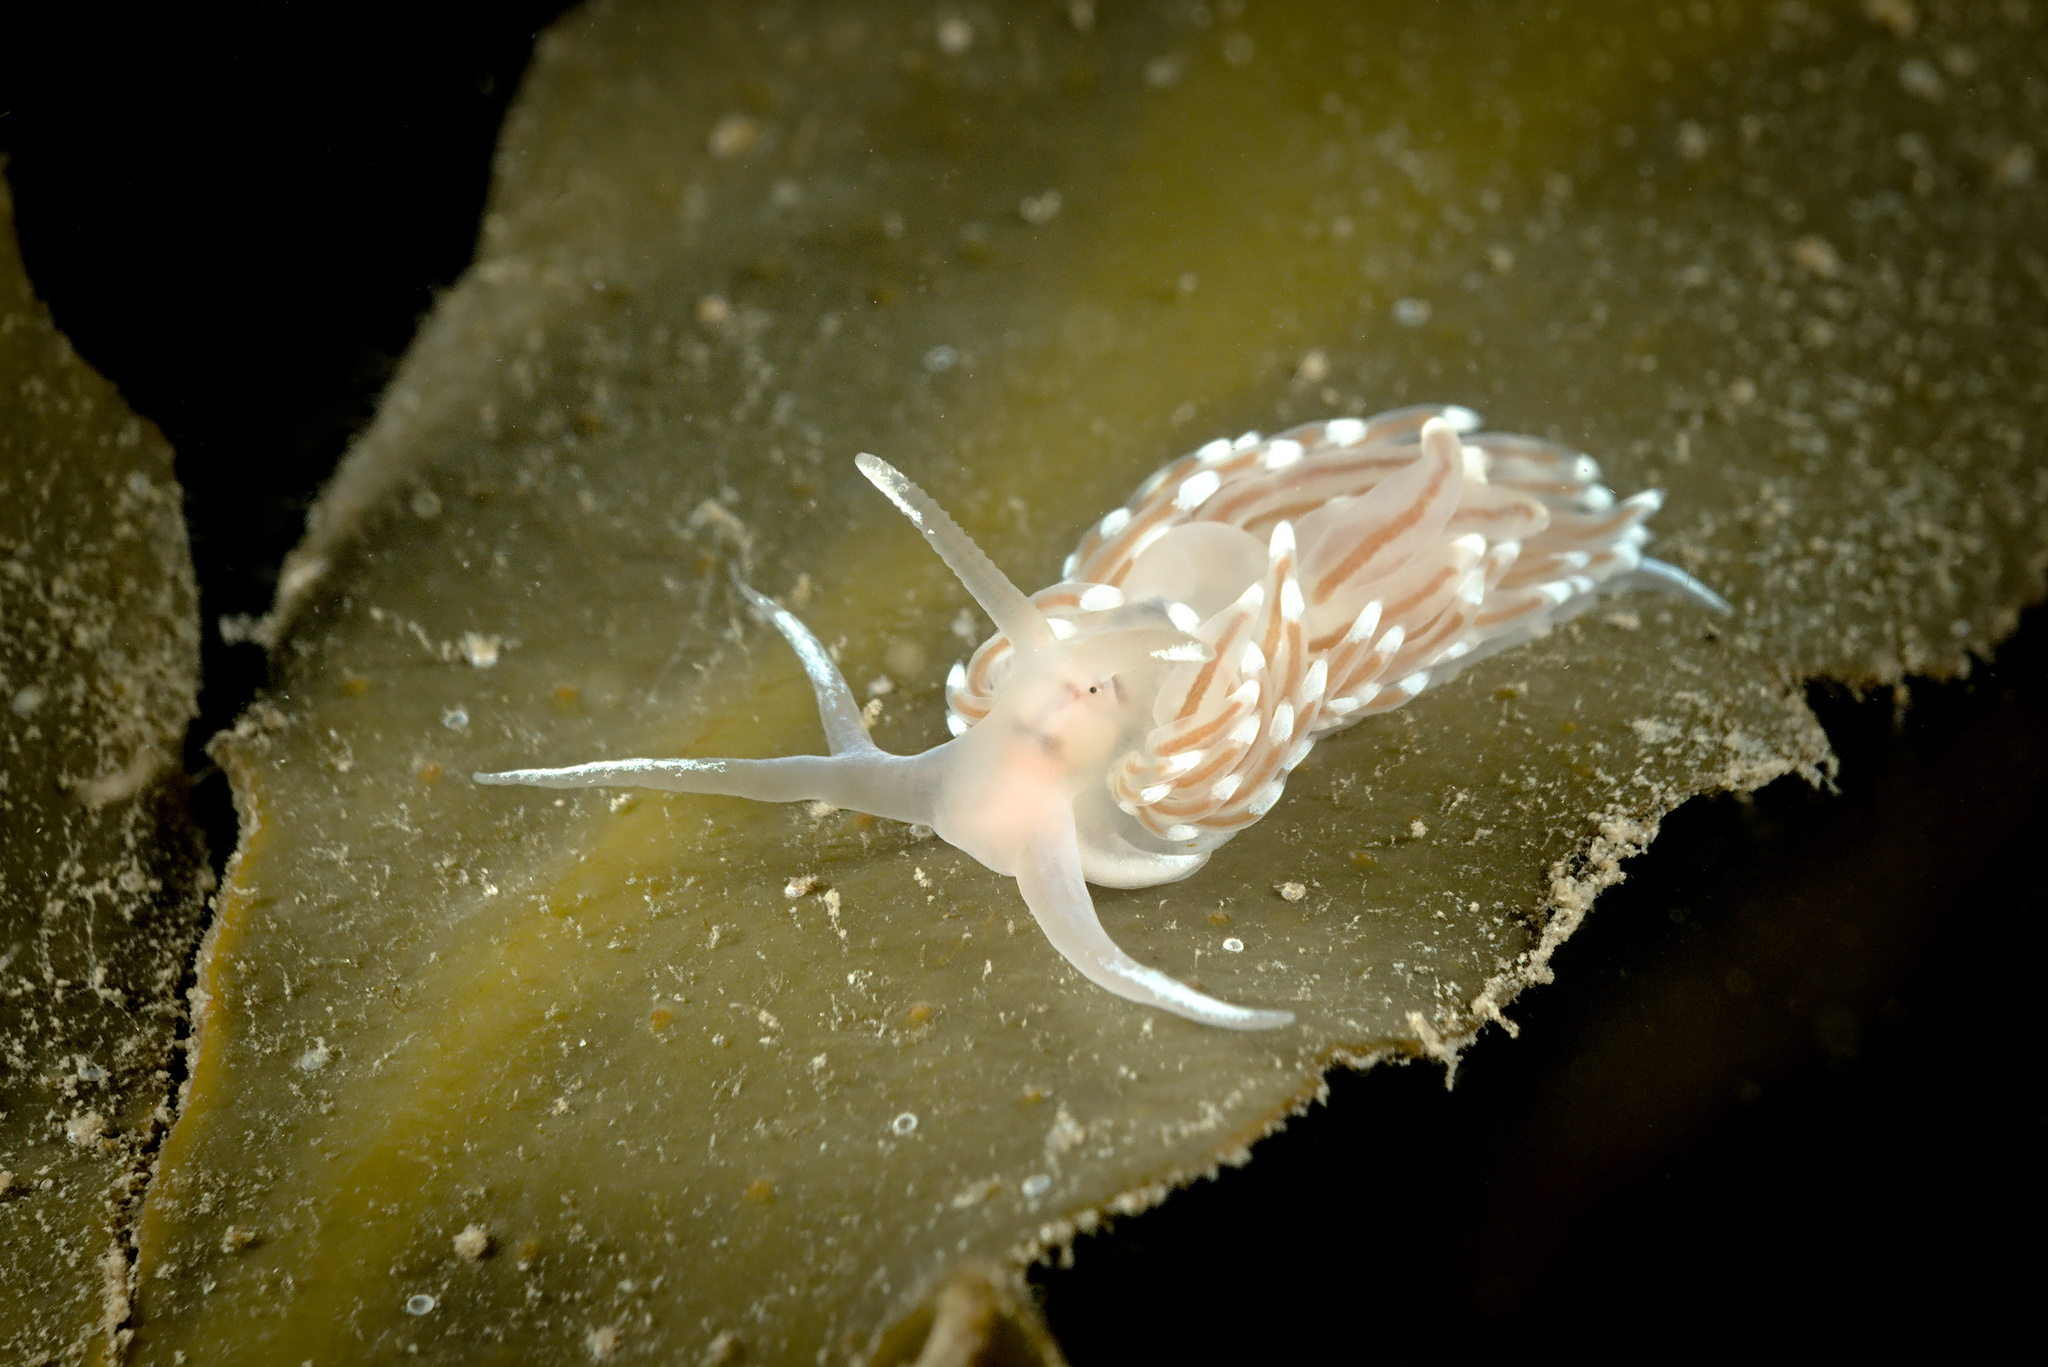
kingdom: Animalia
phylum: Mollusca
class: Gastropoda
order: Nudibranchia
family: Facelinidae
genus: Facelina
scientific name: Facelina bostoniensis
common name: Boston facelina
